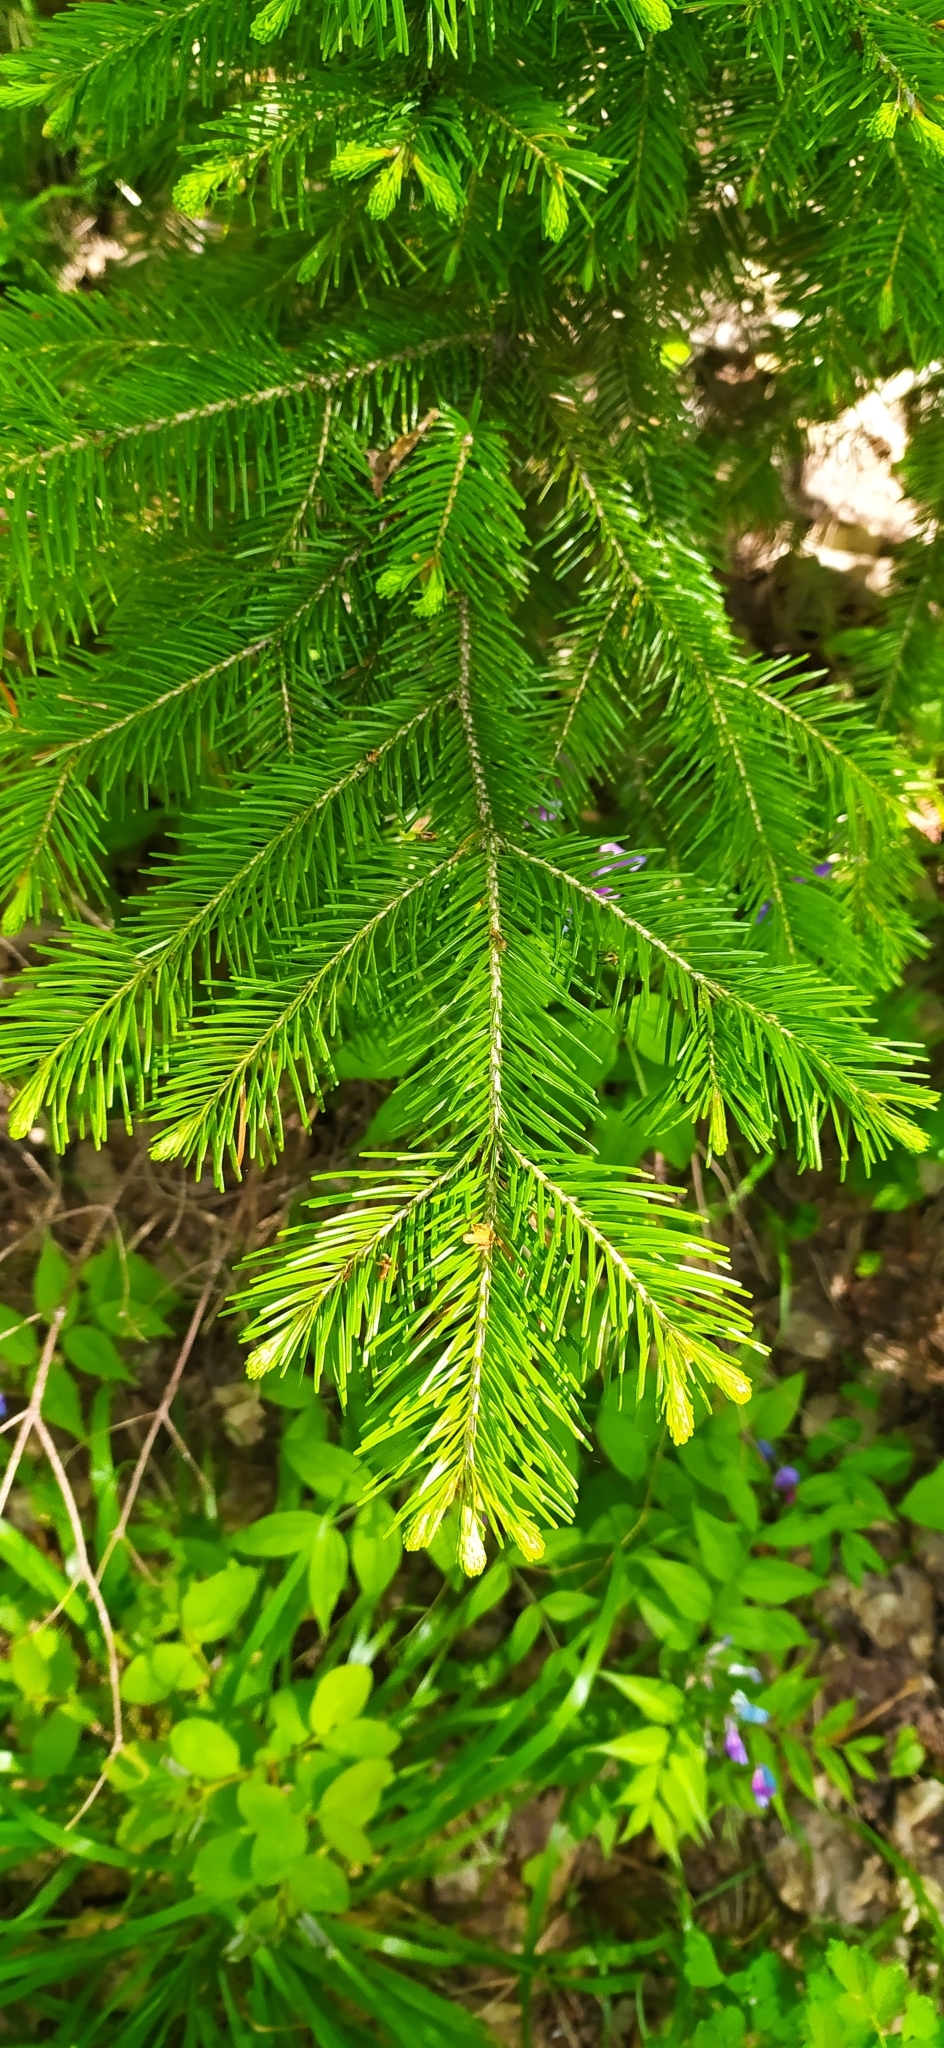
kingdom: Plantae
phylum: Tracheophyta
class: Pinopsida
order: Pinales
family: Pinaceae
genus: Abies
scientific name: Abies sibirica
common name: Siberian fir
